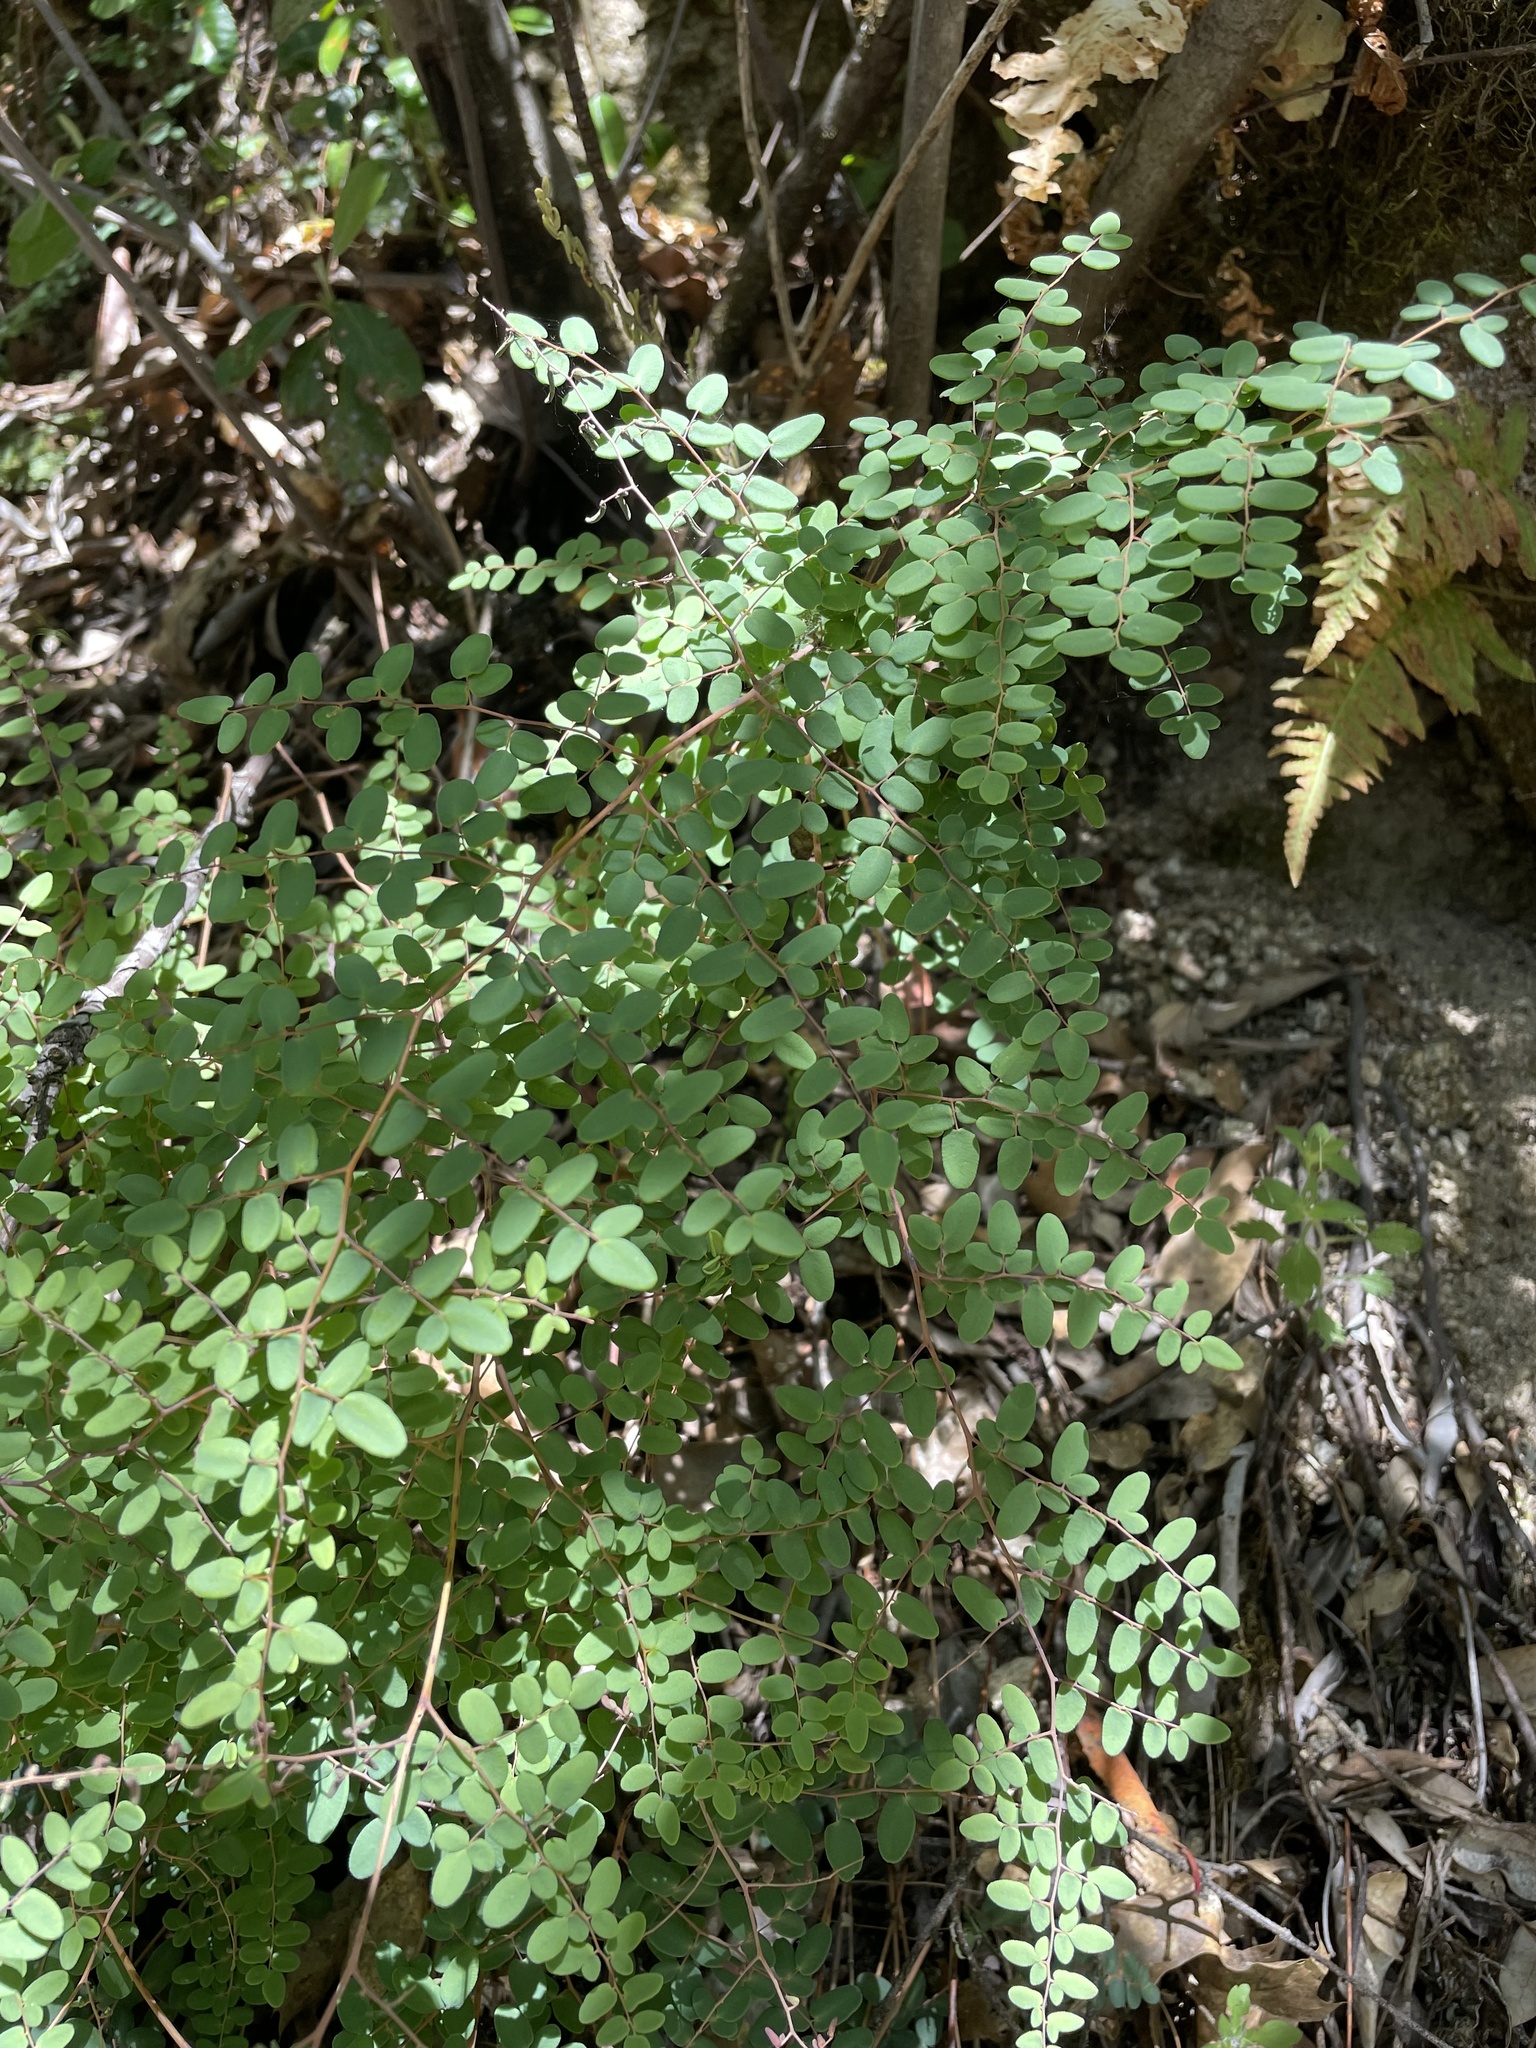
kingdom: Plantae
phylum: Tracheophyta
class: Polypodiopsida
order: Polypodiales
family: Pteridaceae
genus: Pellaea
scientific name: Pellaea andromedifolia
